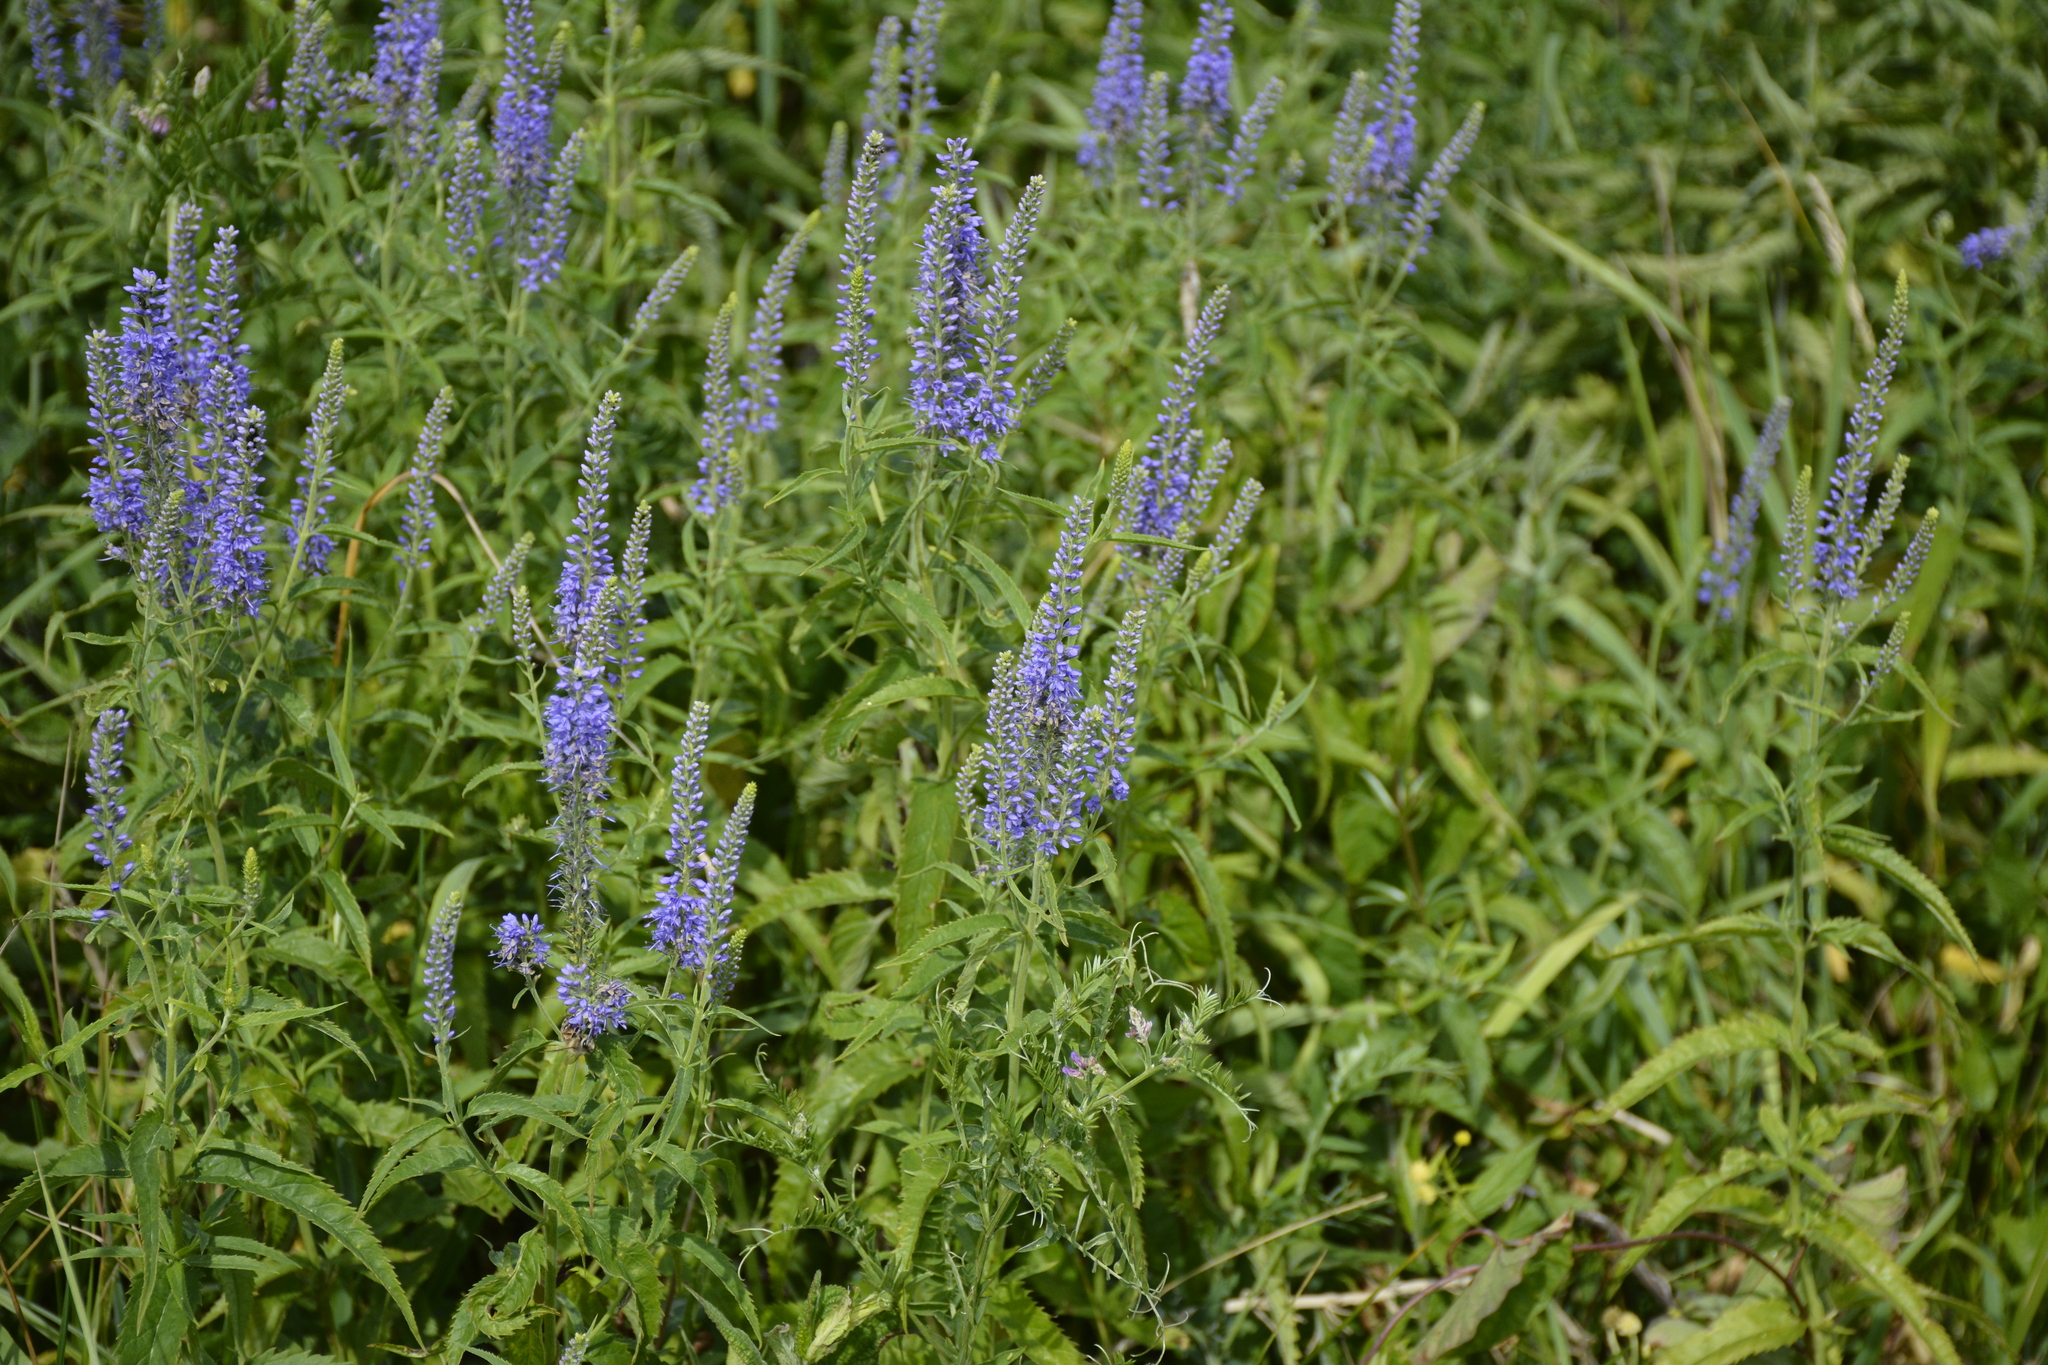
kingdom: Plantae
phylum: Tracheophyta
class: Magnoliopsida
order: Lamiales
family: Plantaginaceae
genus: Veronica
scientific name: Veronica longifolia
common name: Garden speedwell
